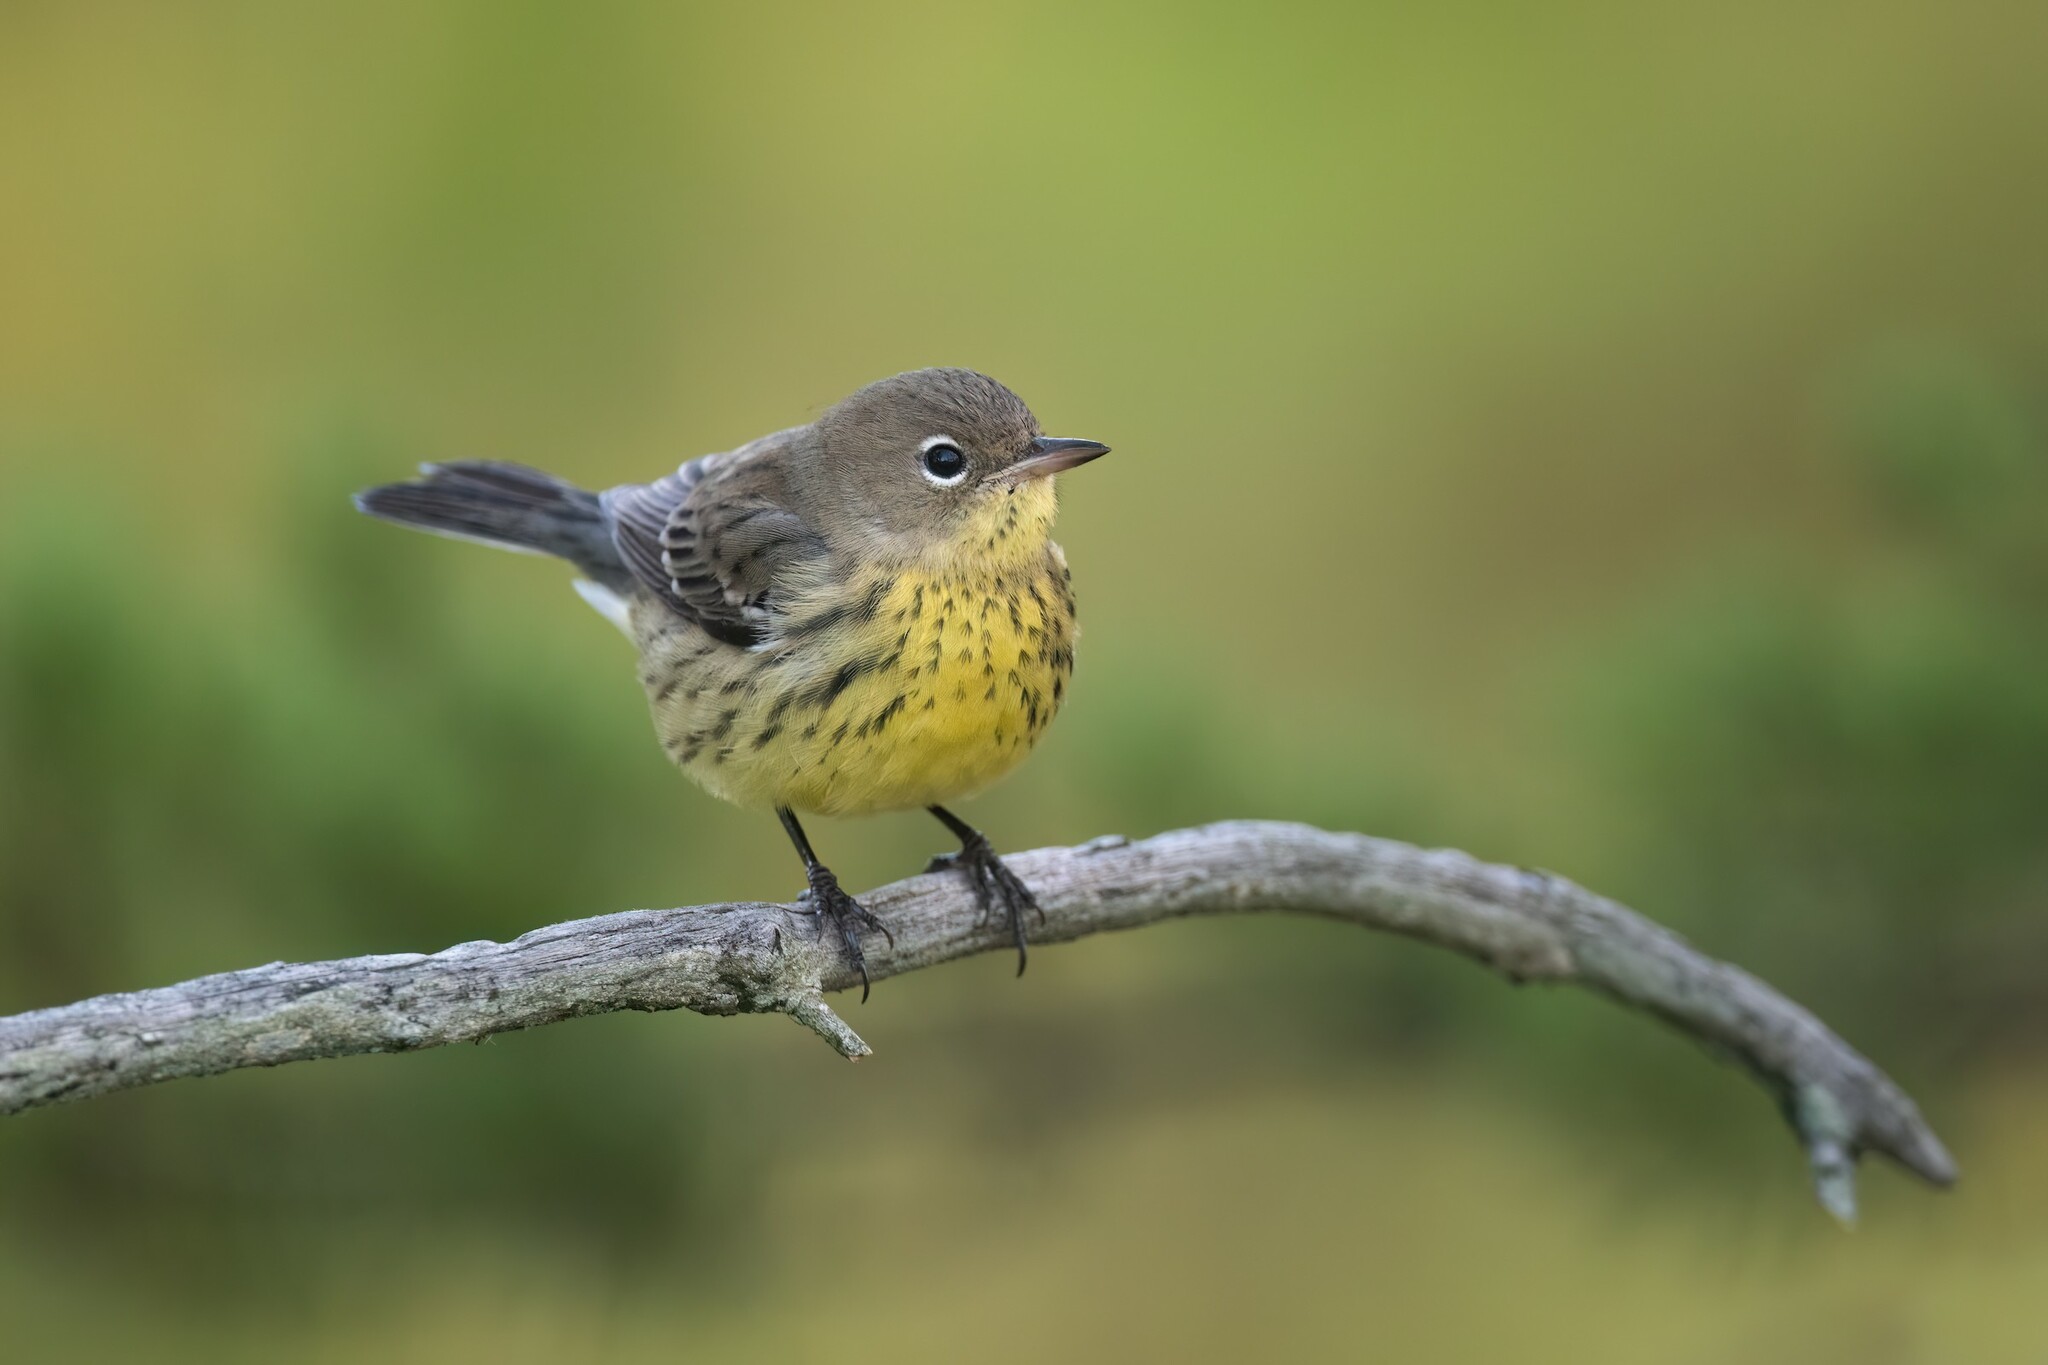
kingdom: Animalia
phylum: Chordata
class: Aves
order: Passeriformes
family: Parulidae
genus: Setophaga
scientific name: Setophaga kirtlandii
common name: Kirtland's warbler
